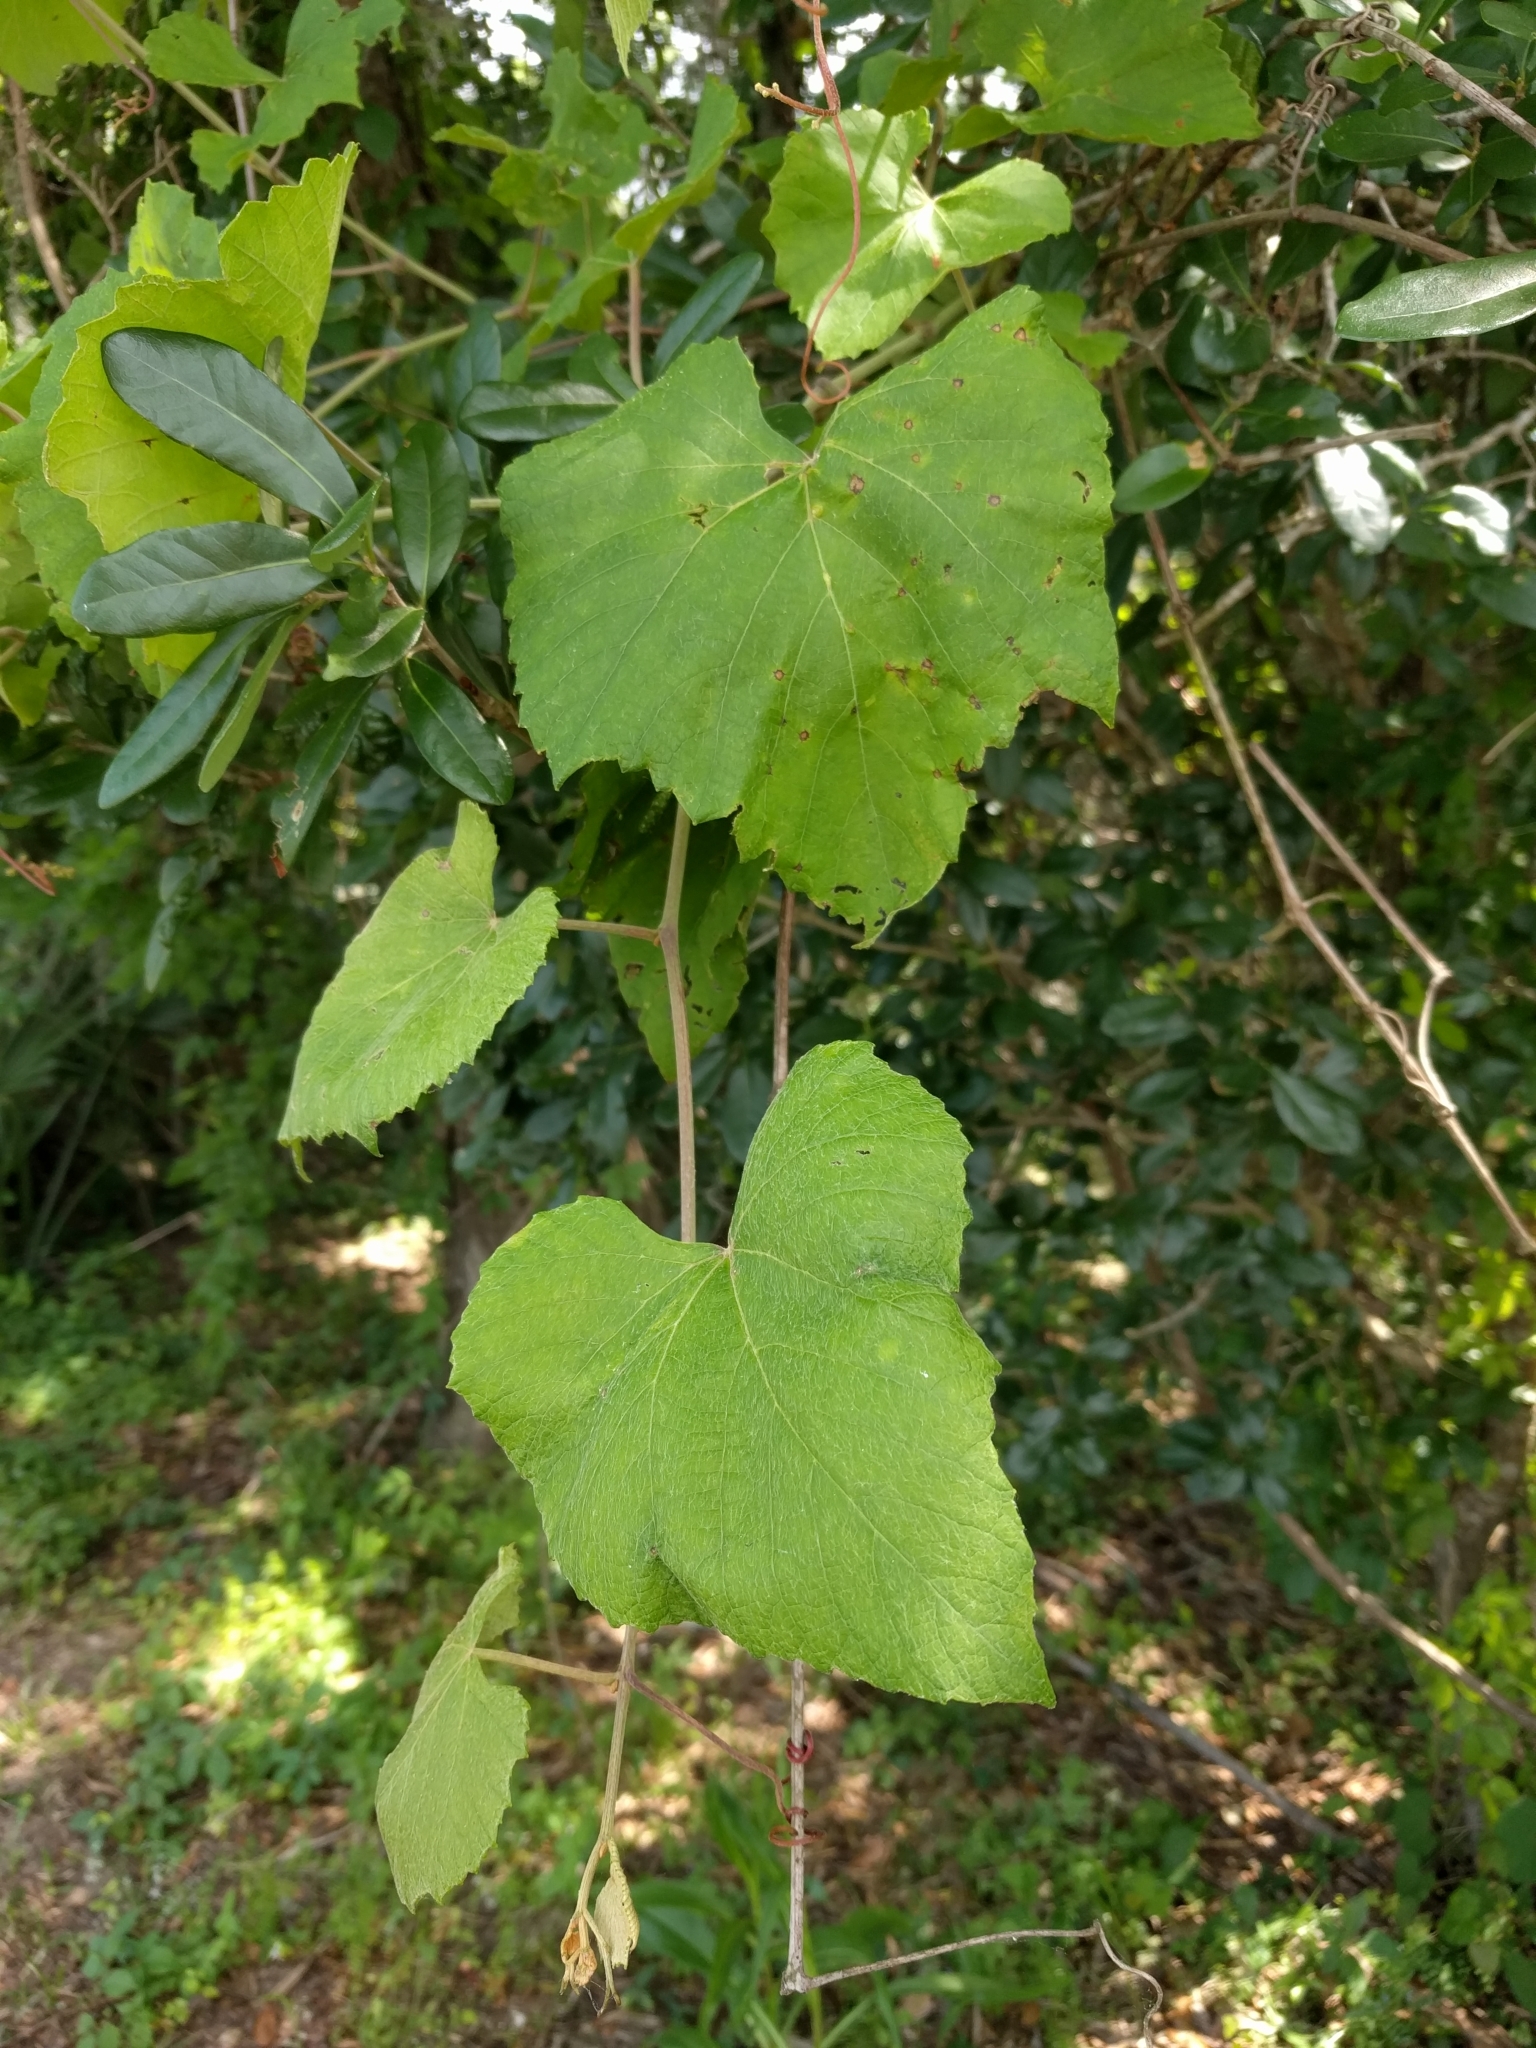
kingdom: Plantae
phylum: Tracheophyta
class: Magnoliopsida
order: Vitales
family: Vitaceae
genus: Vitis
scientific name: Vitis rotundifolia
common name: Muscadine grape
